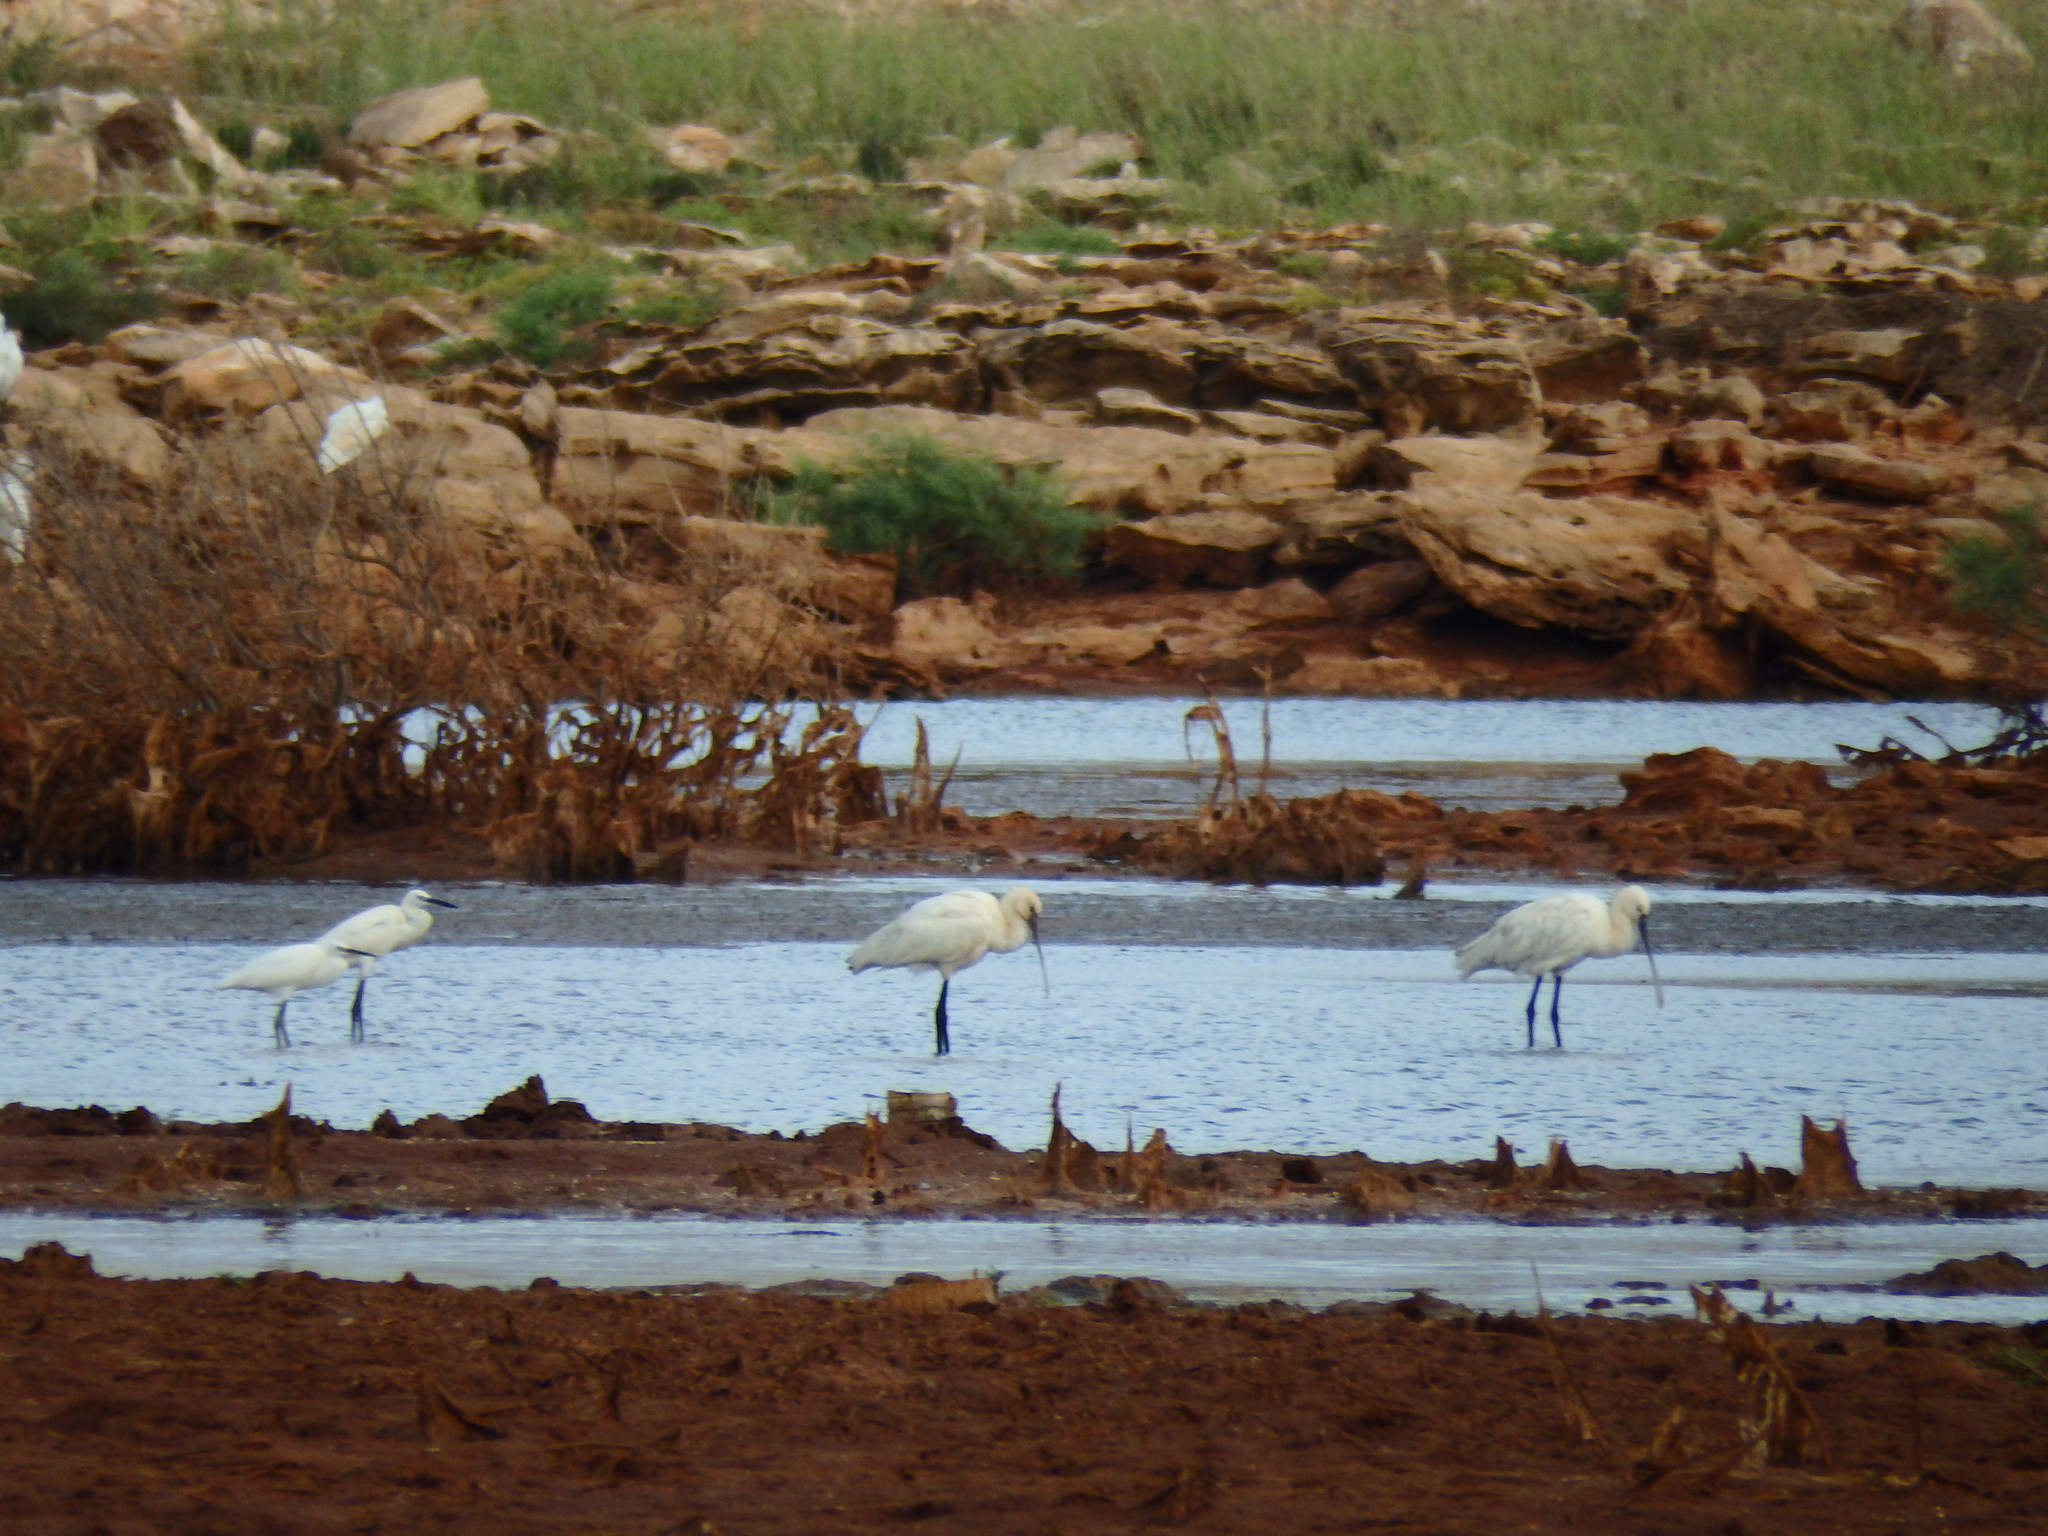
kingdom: Animalia
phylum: Chordata
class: Aves
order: Pelecaniformes
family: Threskiornithidae
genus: Platalea
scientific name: Platalea leucorodia
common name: Eurasian spoonbill
